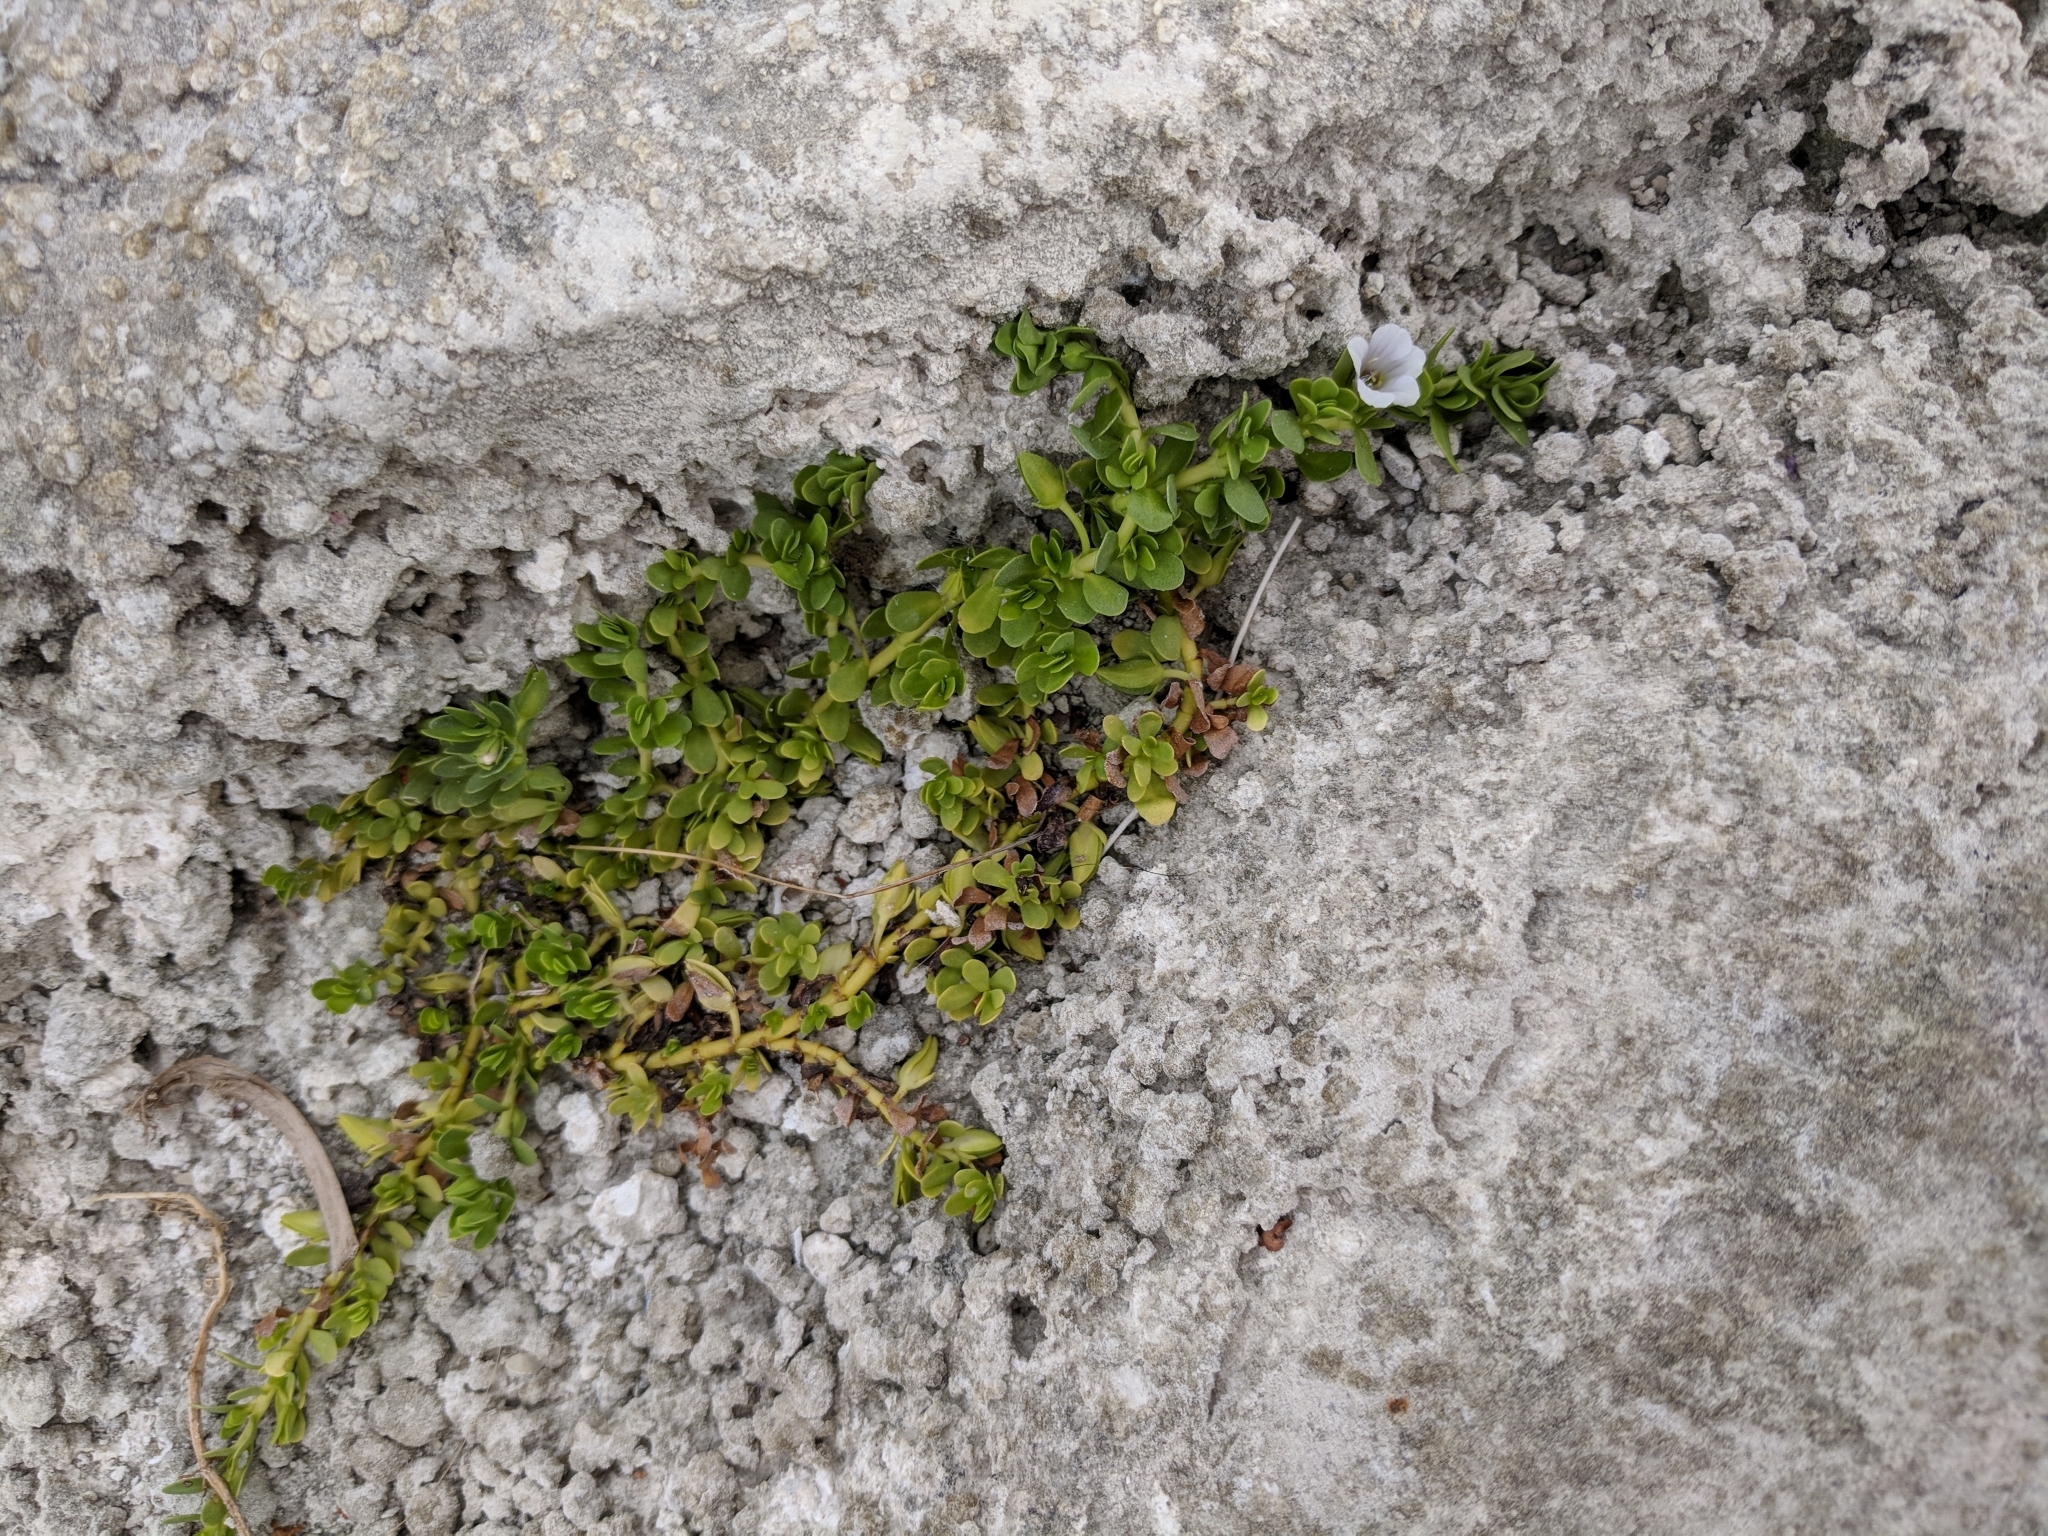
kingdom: Plantae
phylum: Tracheophyta
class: Magnoliopsida
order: Lamiales
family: Plantaginaceae
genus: Bacopa
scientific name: Bacopa monnieri
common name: Indian-pennywort
